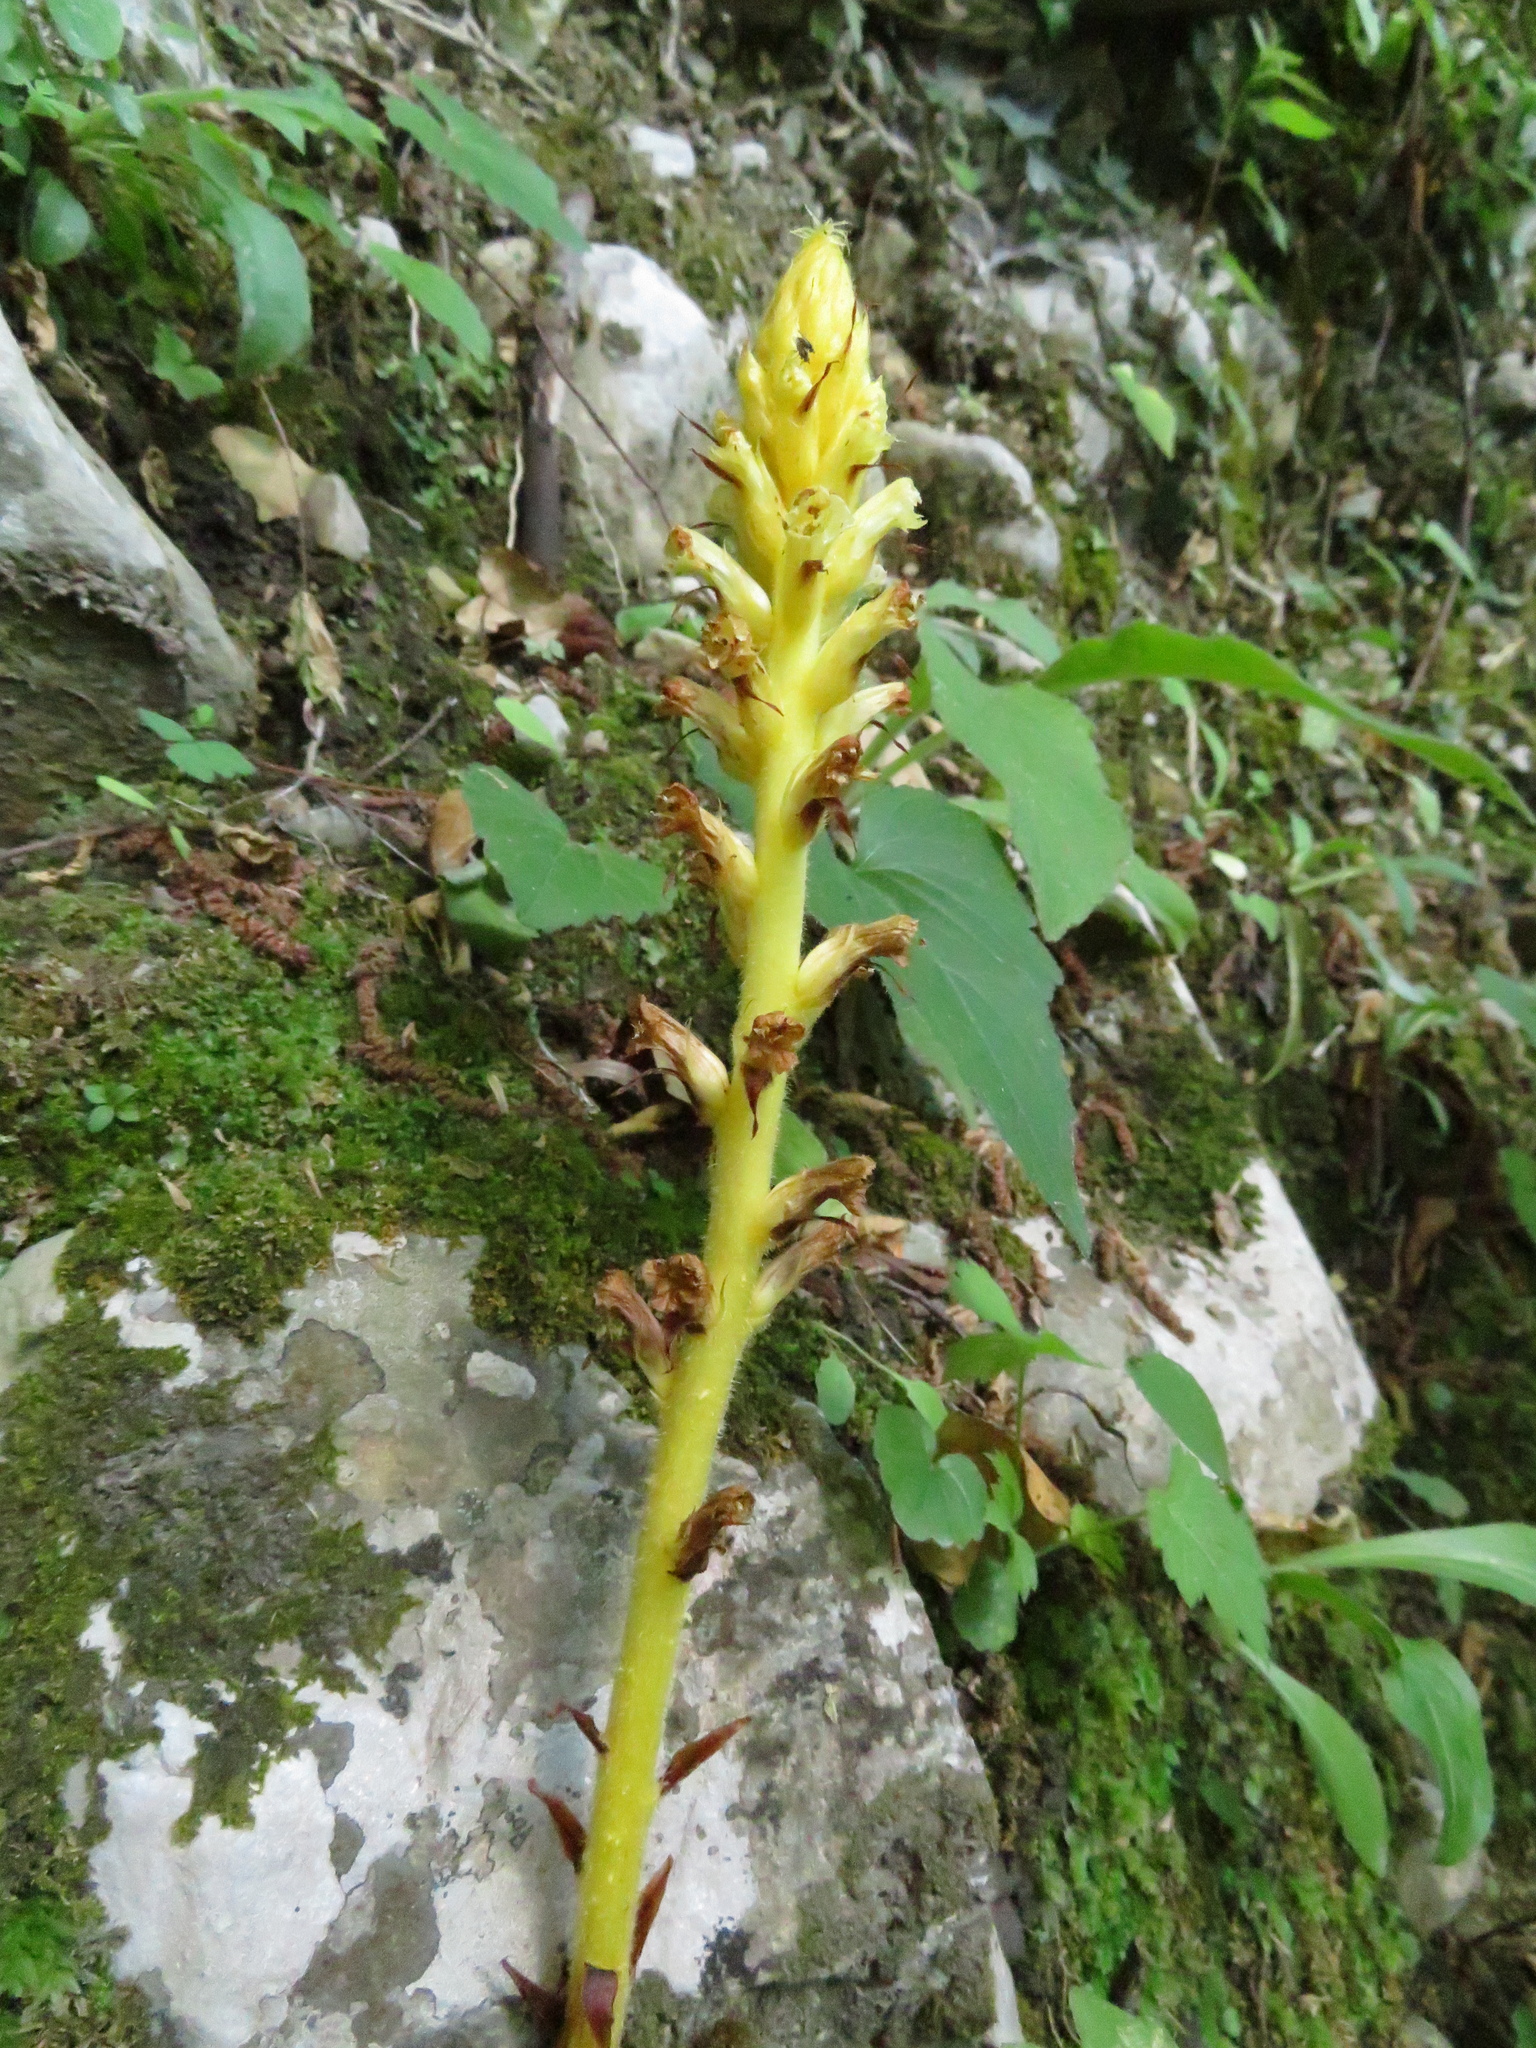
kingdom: Plantae
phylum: Tracheophyta
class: Magnoliopsida
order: Lamiales
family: Orobanchaceae
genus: Orobanche
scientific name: Orobanche hederae
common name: Ivy broomrape
